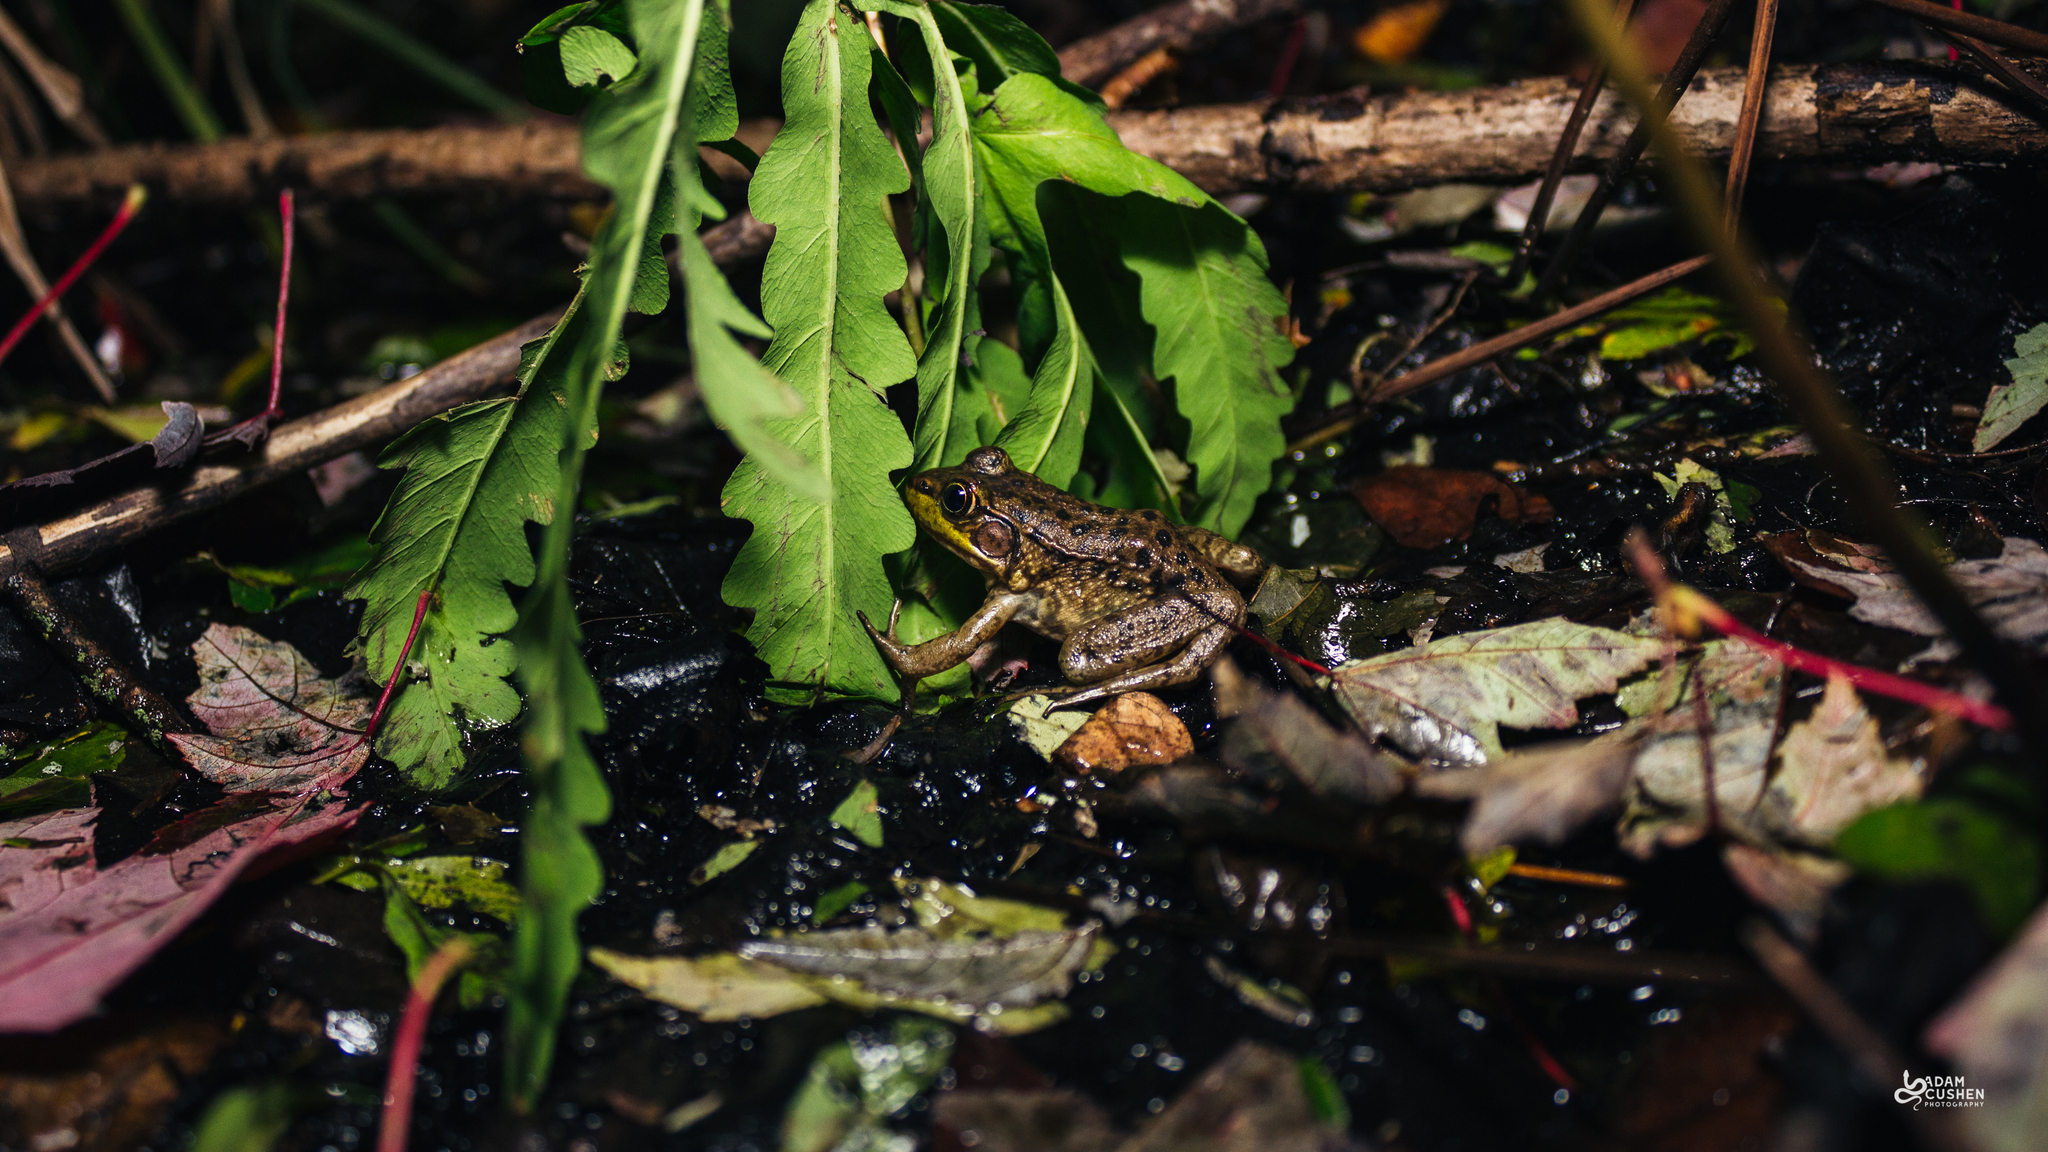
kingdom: Animalia
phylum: Chordata
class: Amphibia
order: Anura
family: Ranidae
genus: Lithobates
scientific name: Lithobates clamitans
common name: Green frog
